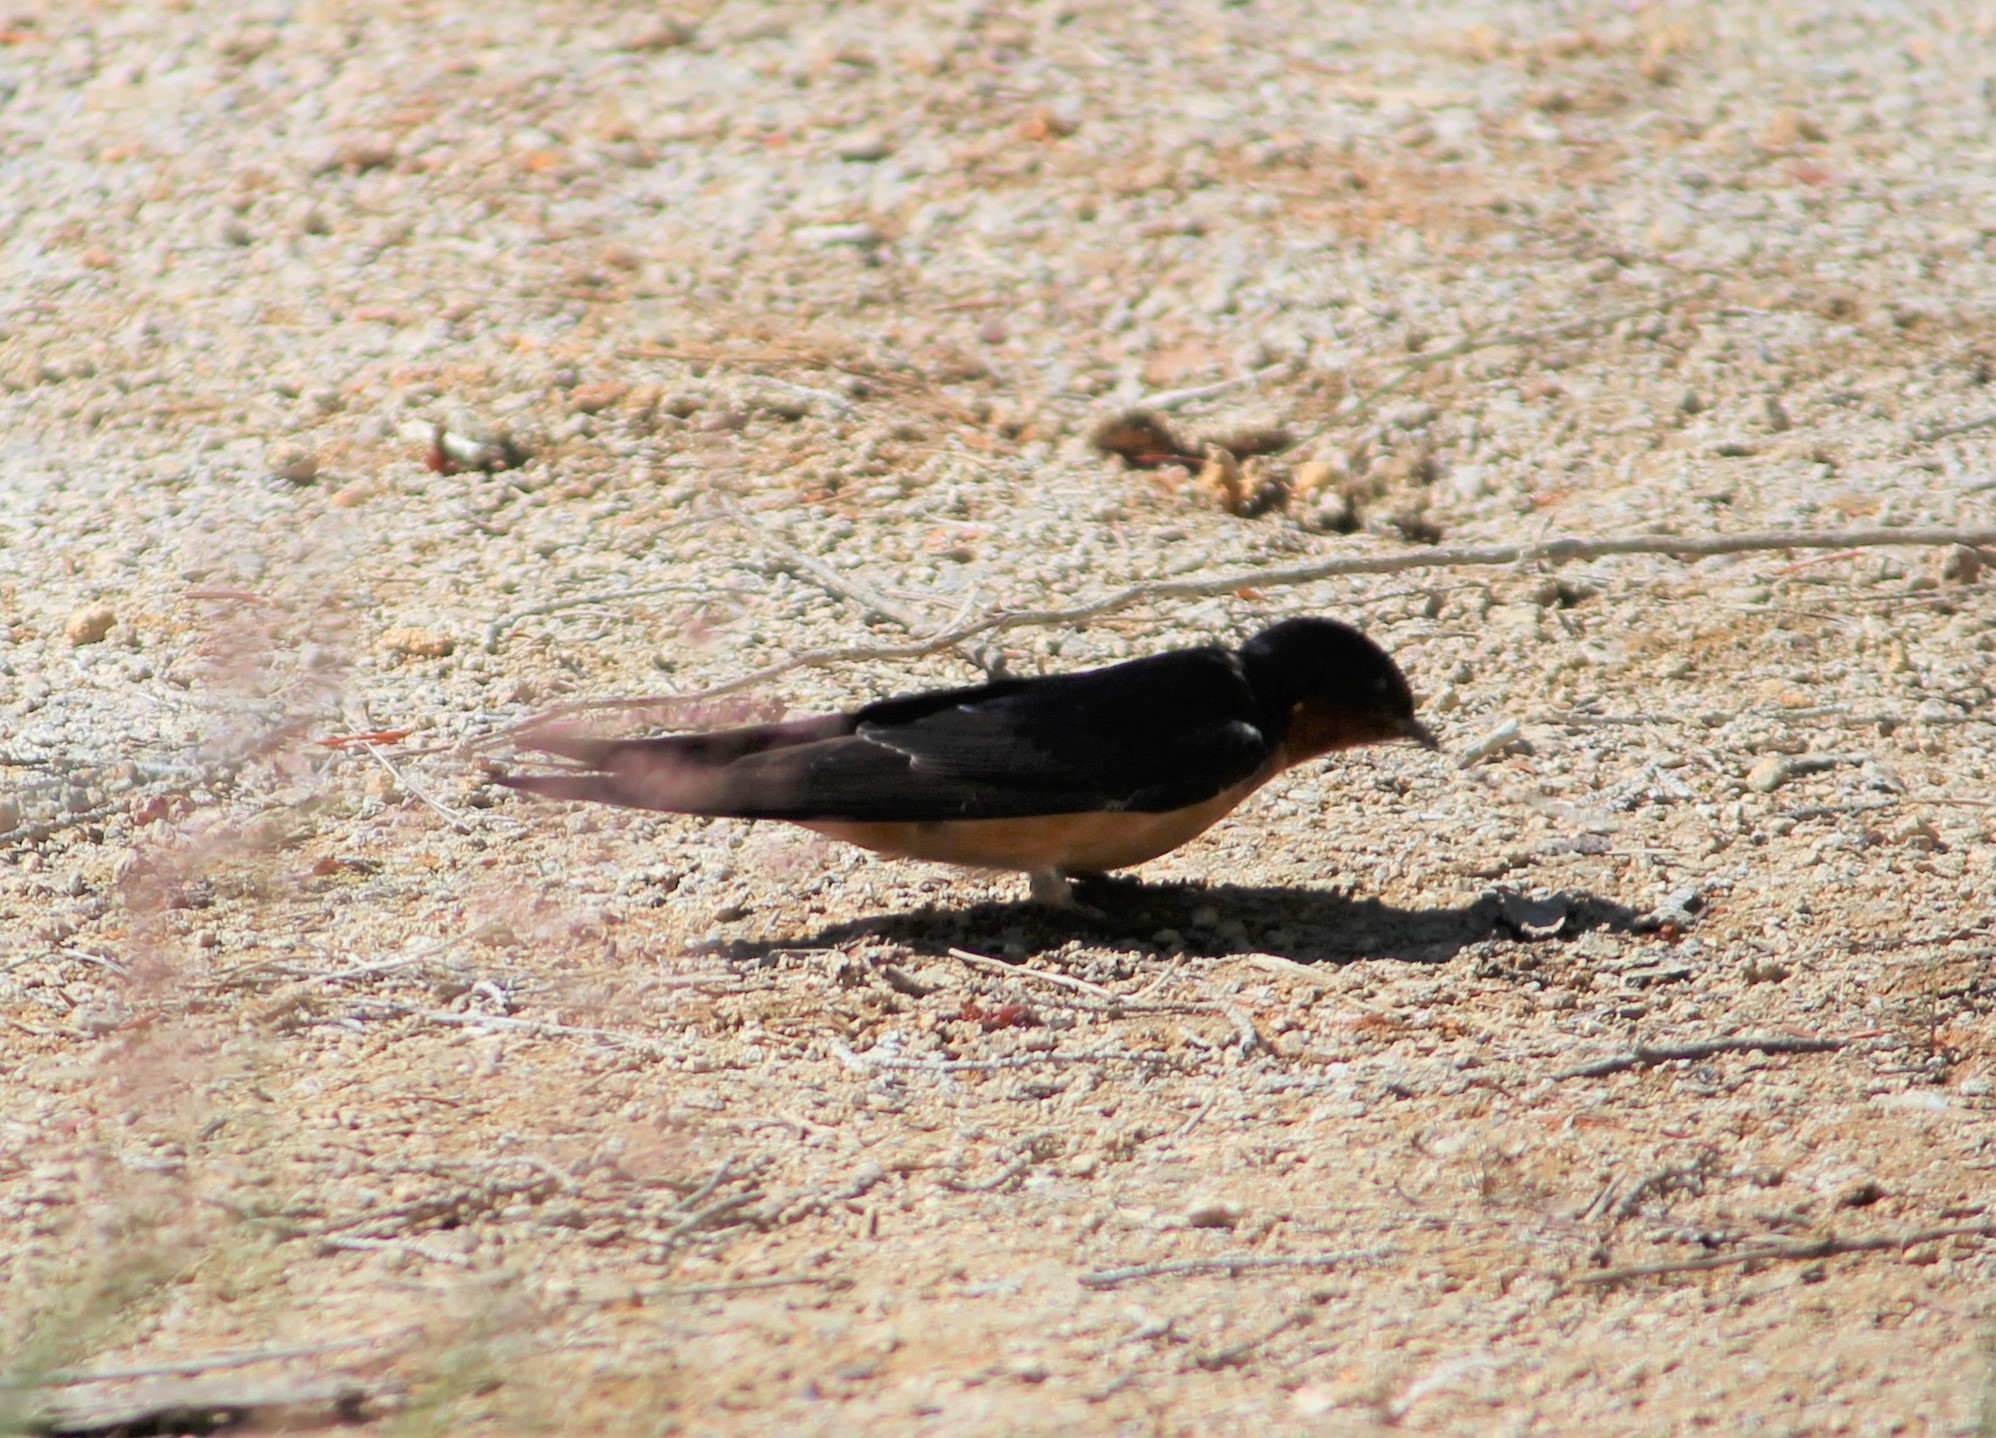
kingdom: Animalia
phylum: Chordata
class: Aves
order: Passeriformes
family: Hirundinidae
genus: Hirundo
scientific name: Hirundo rustica
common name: Barn swallow
